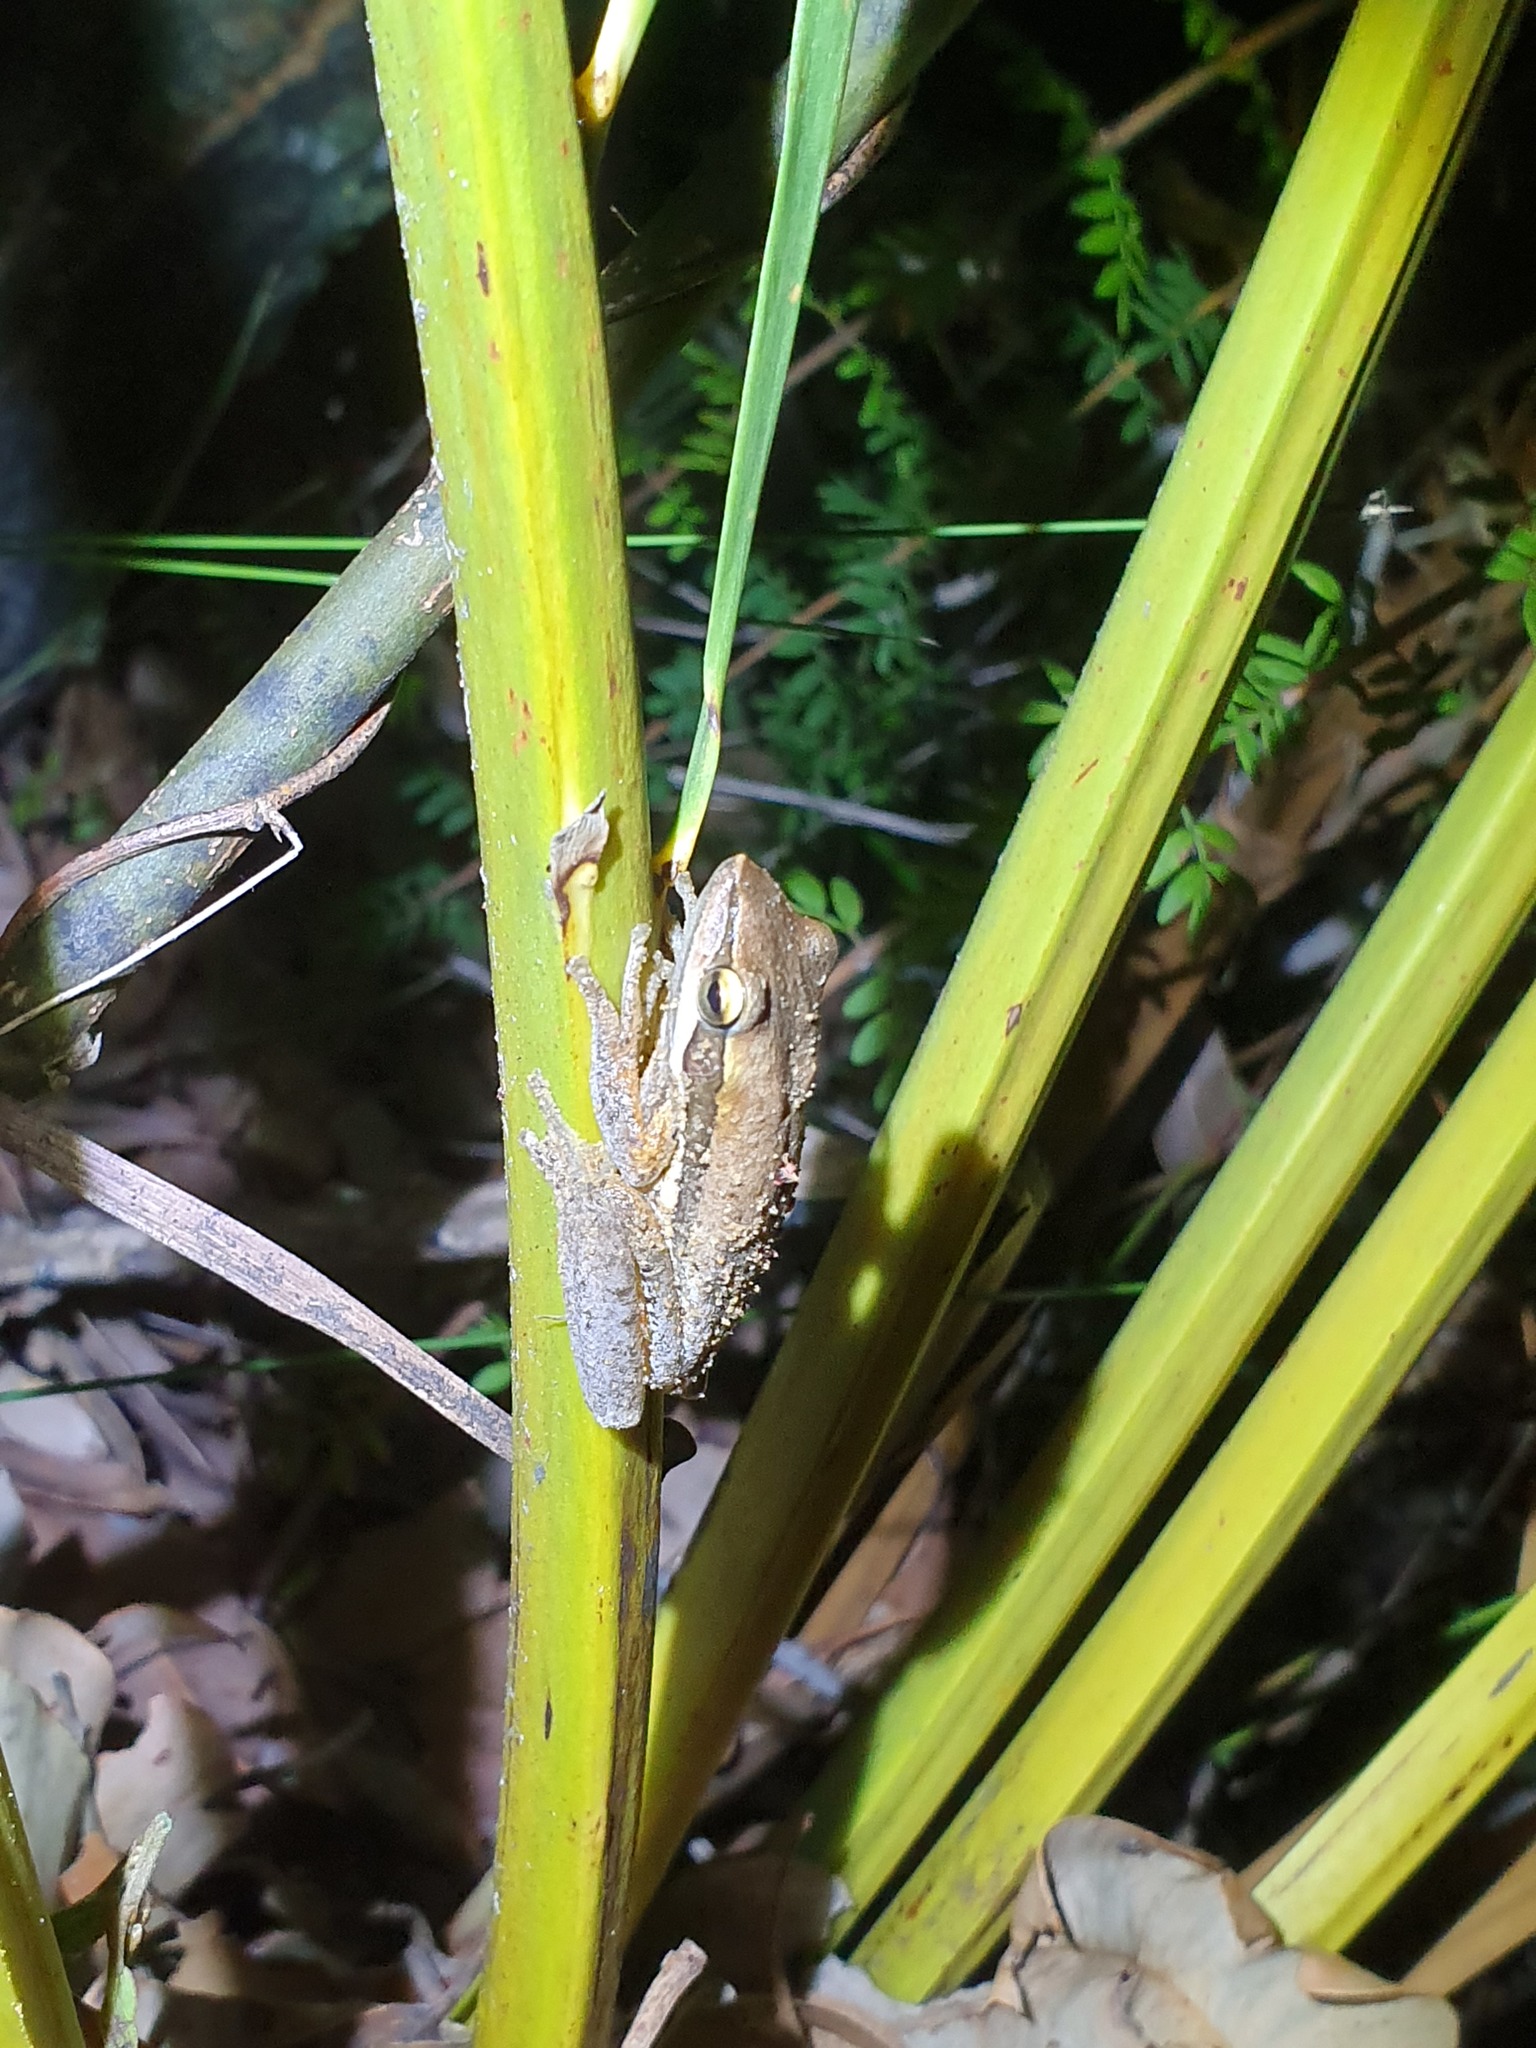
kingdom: Animalia
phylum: Chordata
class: Amphibia
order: Anura
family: Pelodryadidae
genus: Litoria
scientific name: Litoria adelaidensis
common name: Slender tree frog
